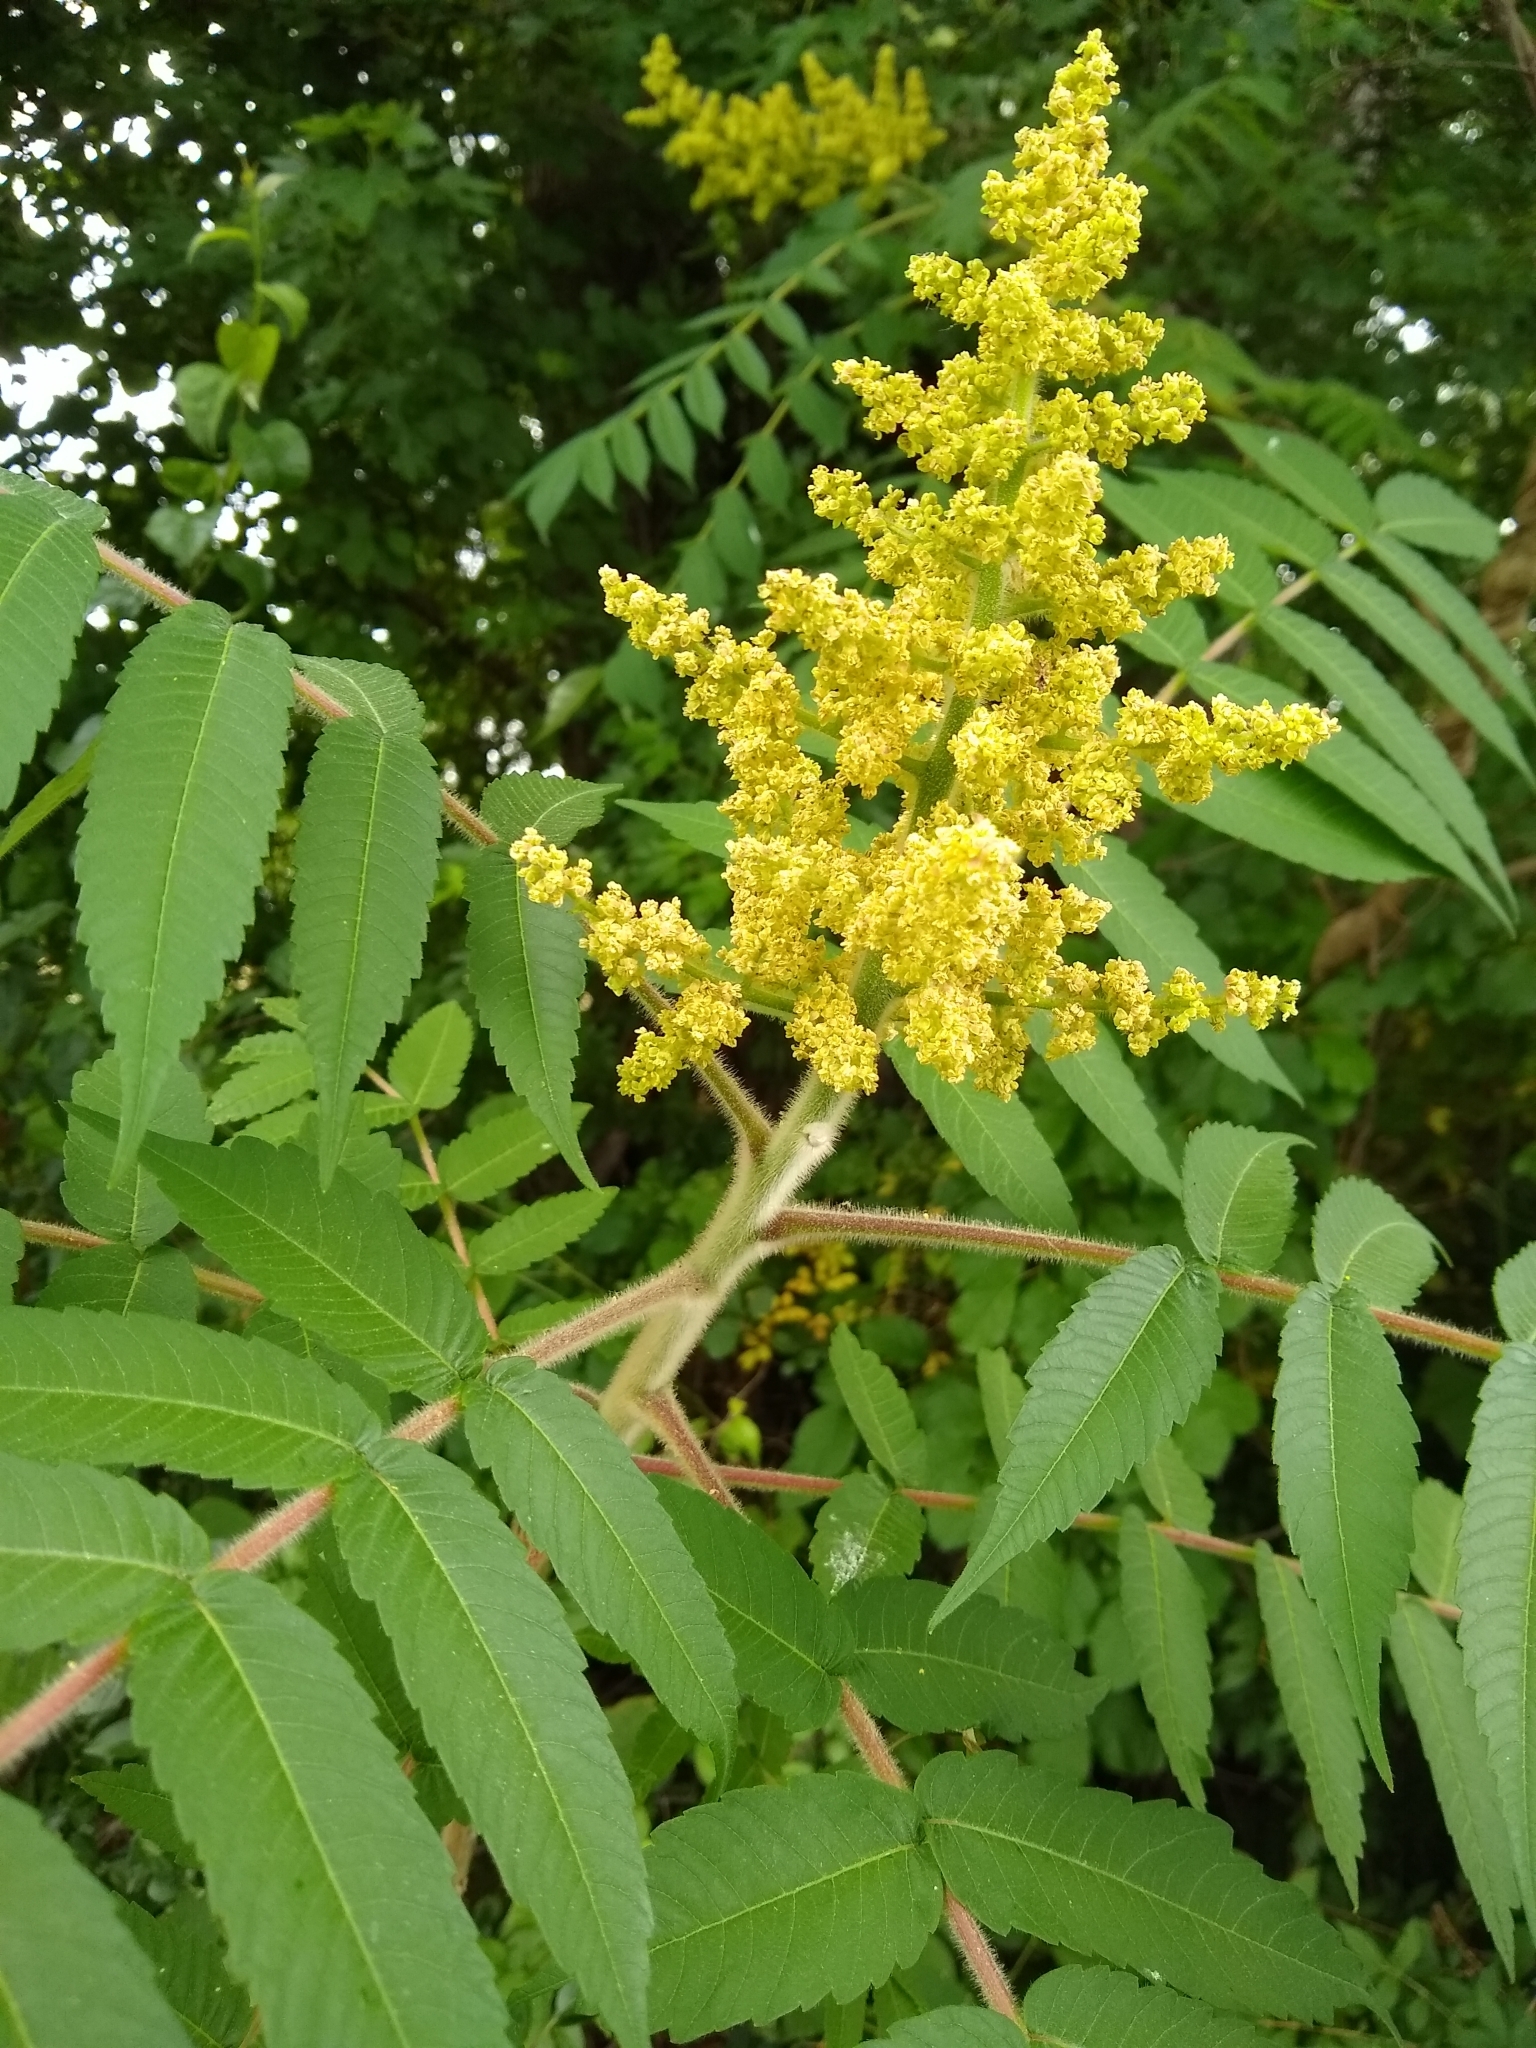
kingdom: Plantae
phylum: Tracheophyta
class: Magnoliopsida
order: Sapindales
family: Anacardiaceae
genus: Rhus
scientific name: Rhus typhina
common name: Staghorn sumac
